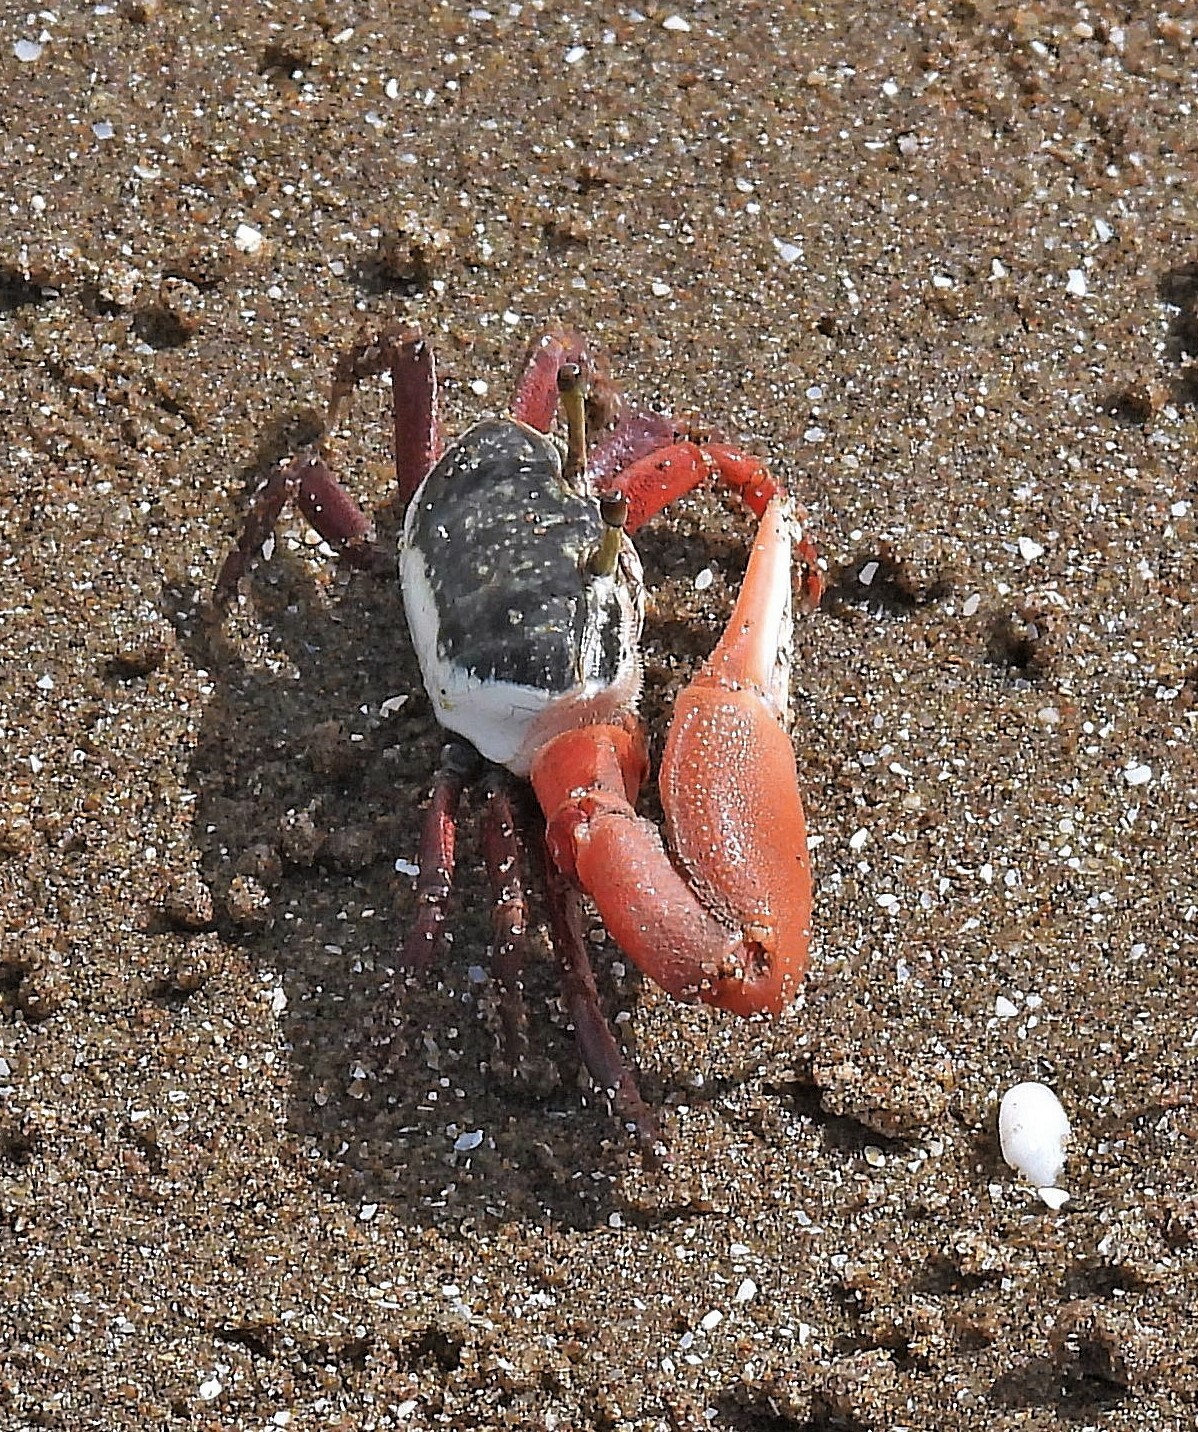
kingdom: Animalia
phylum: Arthropoda
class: Malacostraca
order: Decapoda
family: Ocypodidae
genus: Leptuca
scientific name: Leptuca uruguayensis
